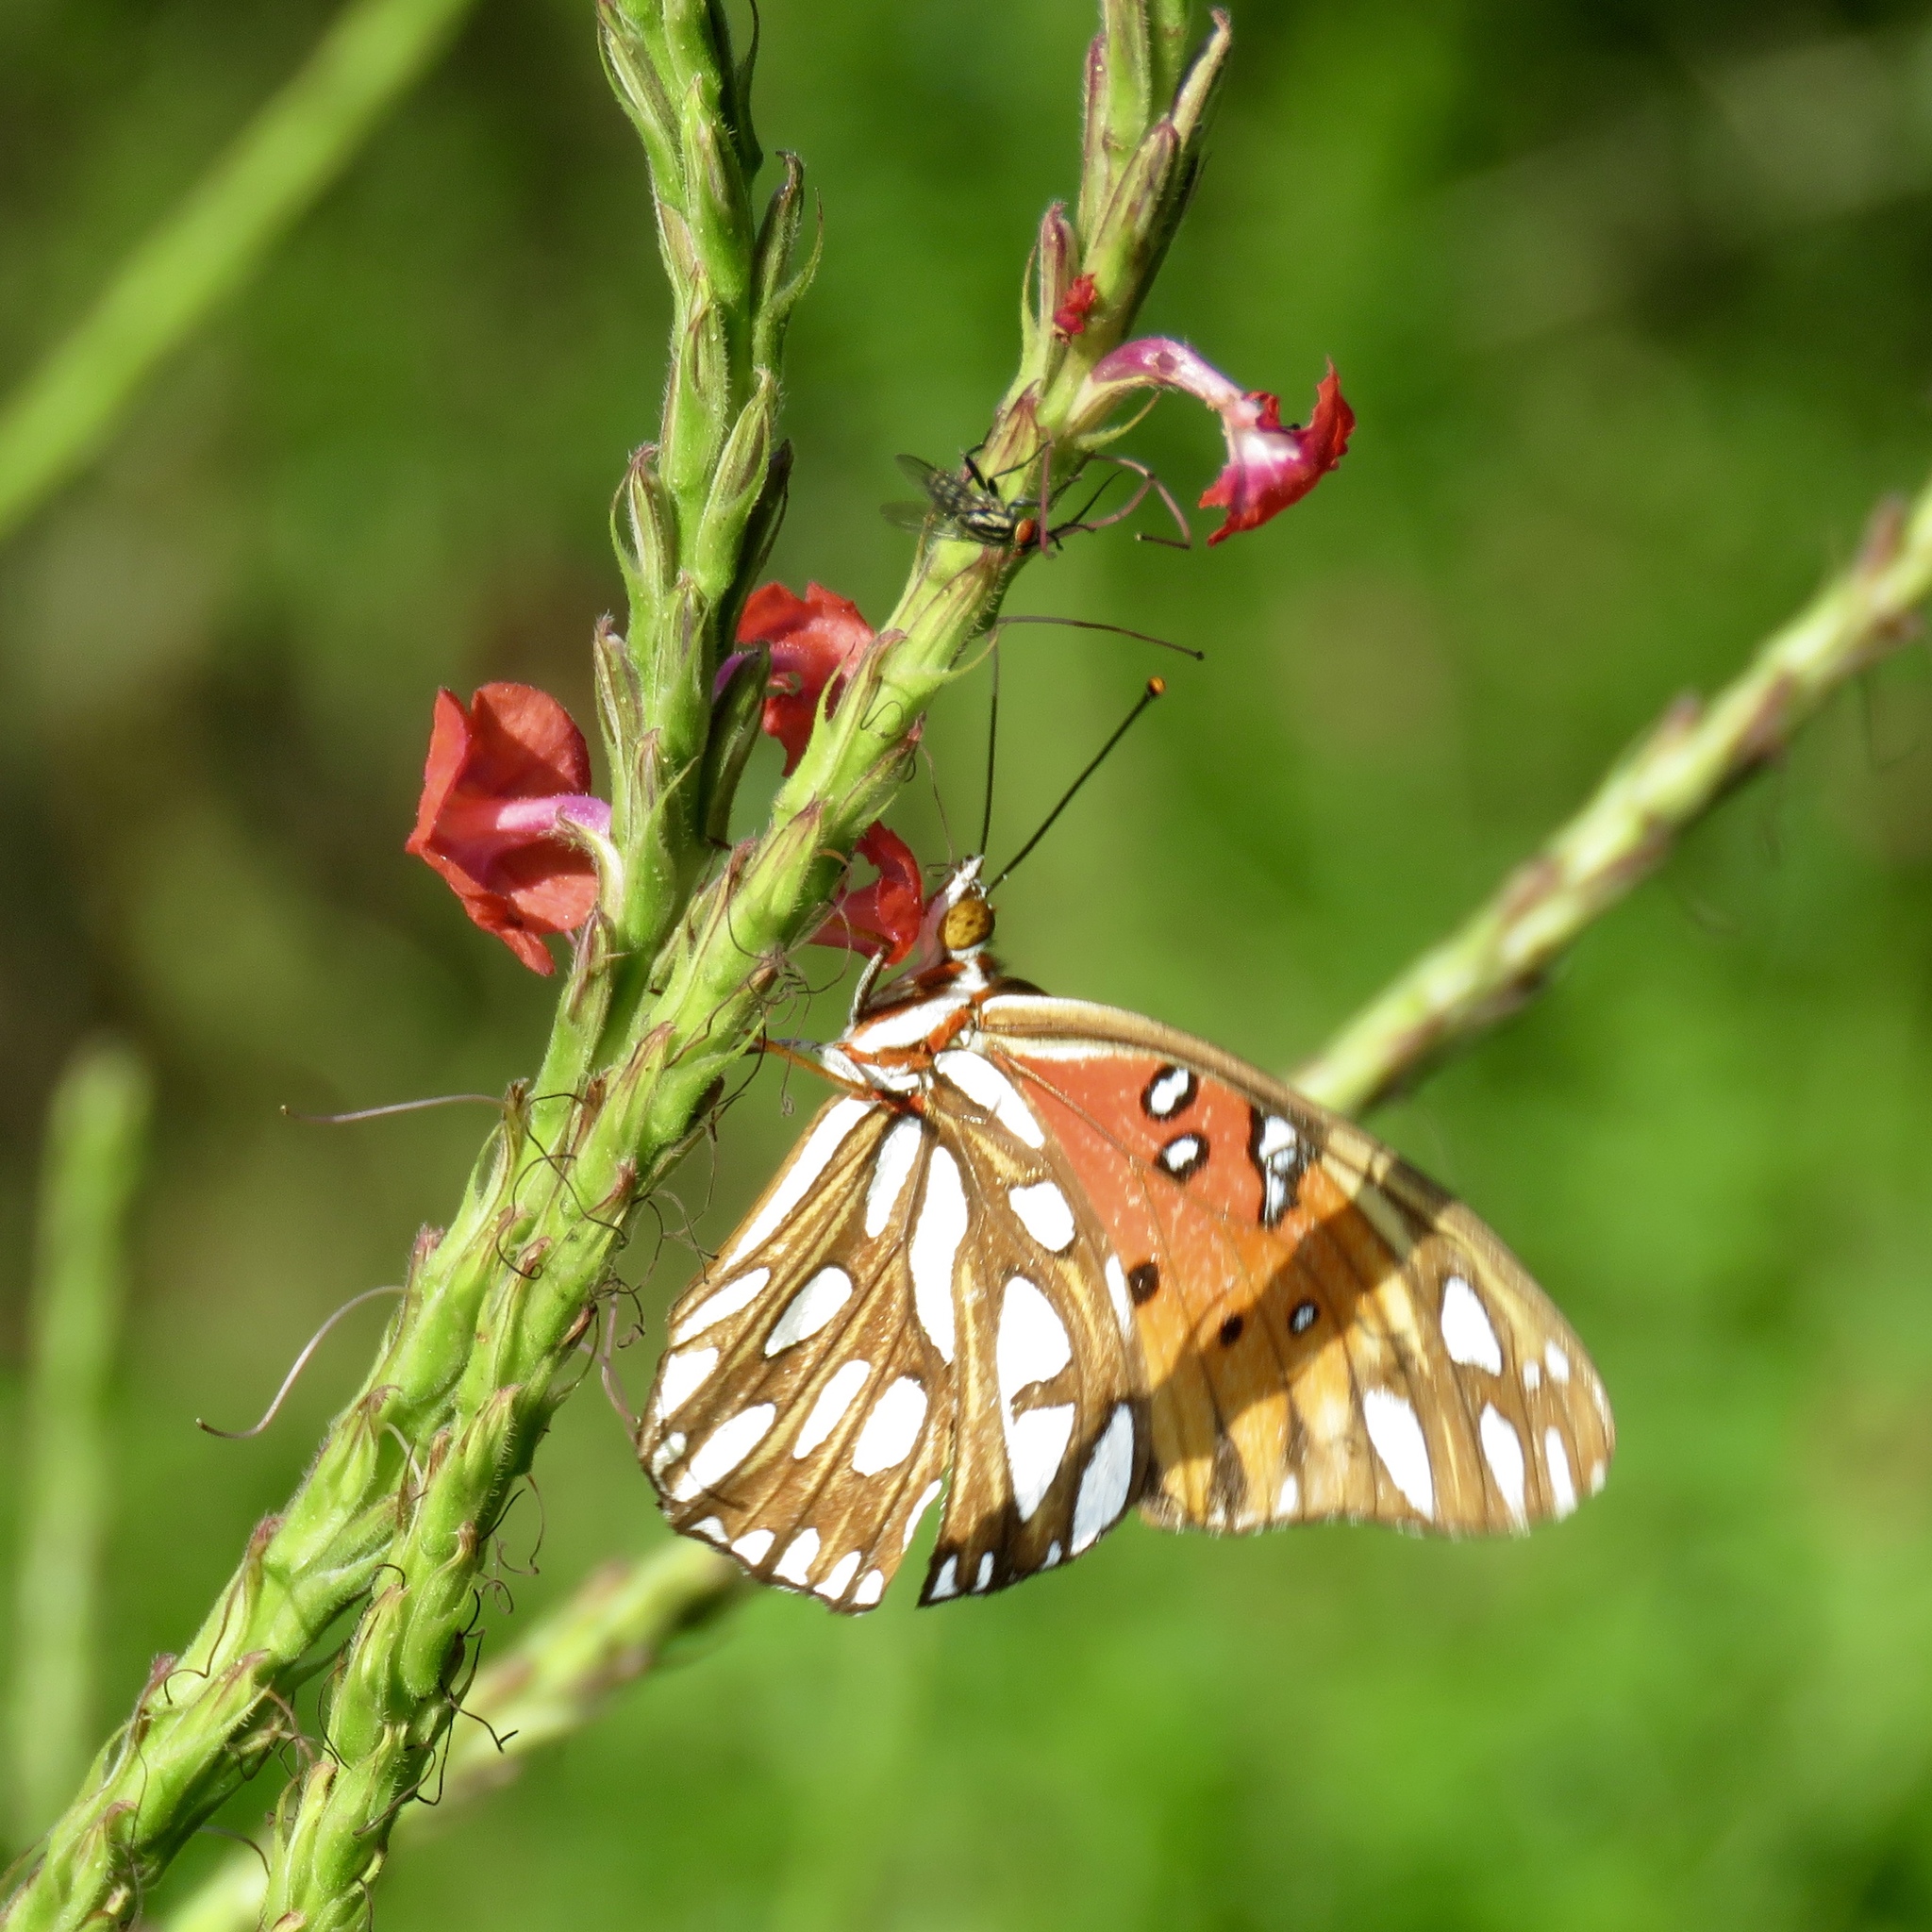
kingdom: Animalia
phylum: Arthropoda
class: Insecta
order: Lepidoptera
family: Nymphalidae
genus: Dione
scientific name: Dione vanillae
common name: Gulf fritillary
